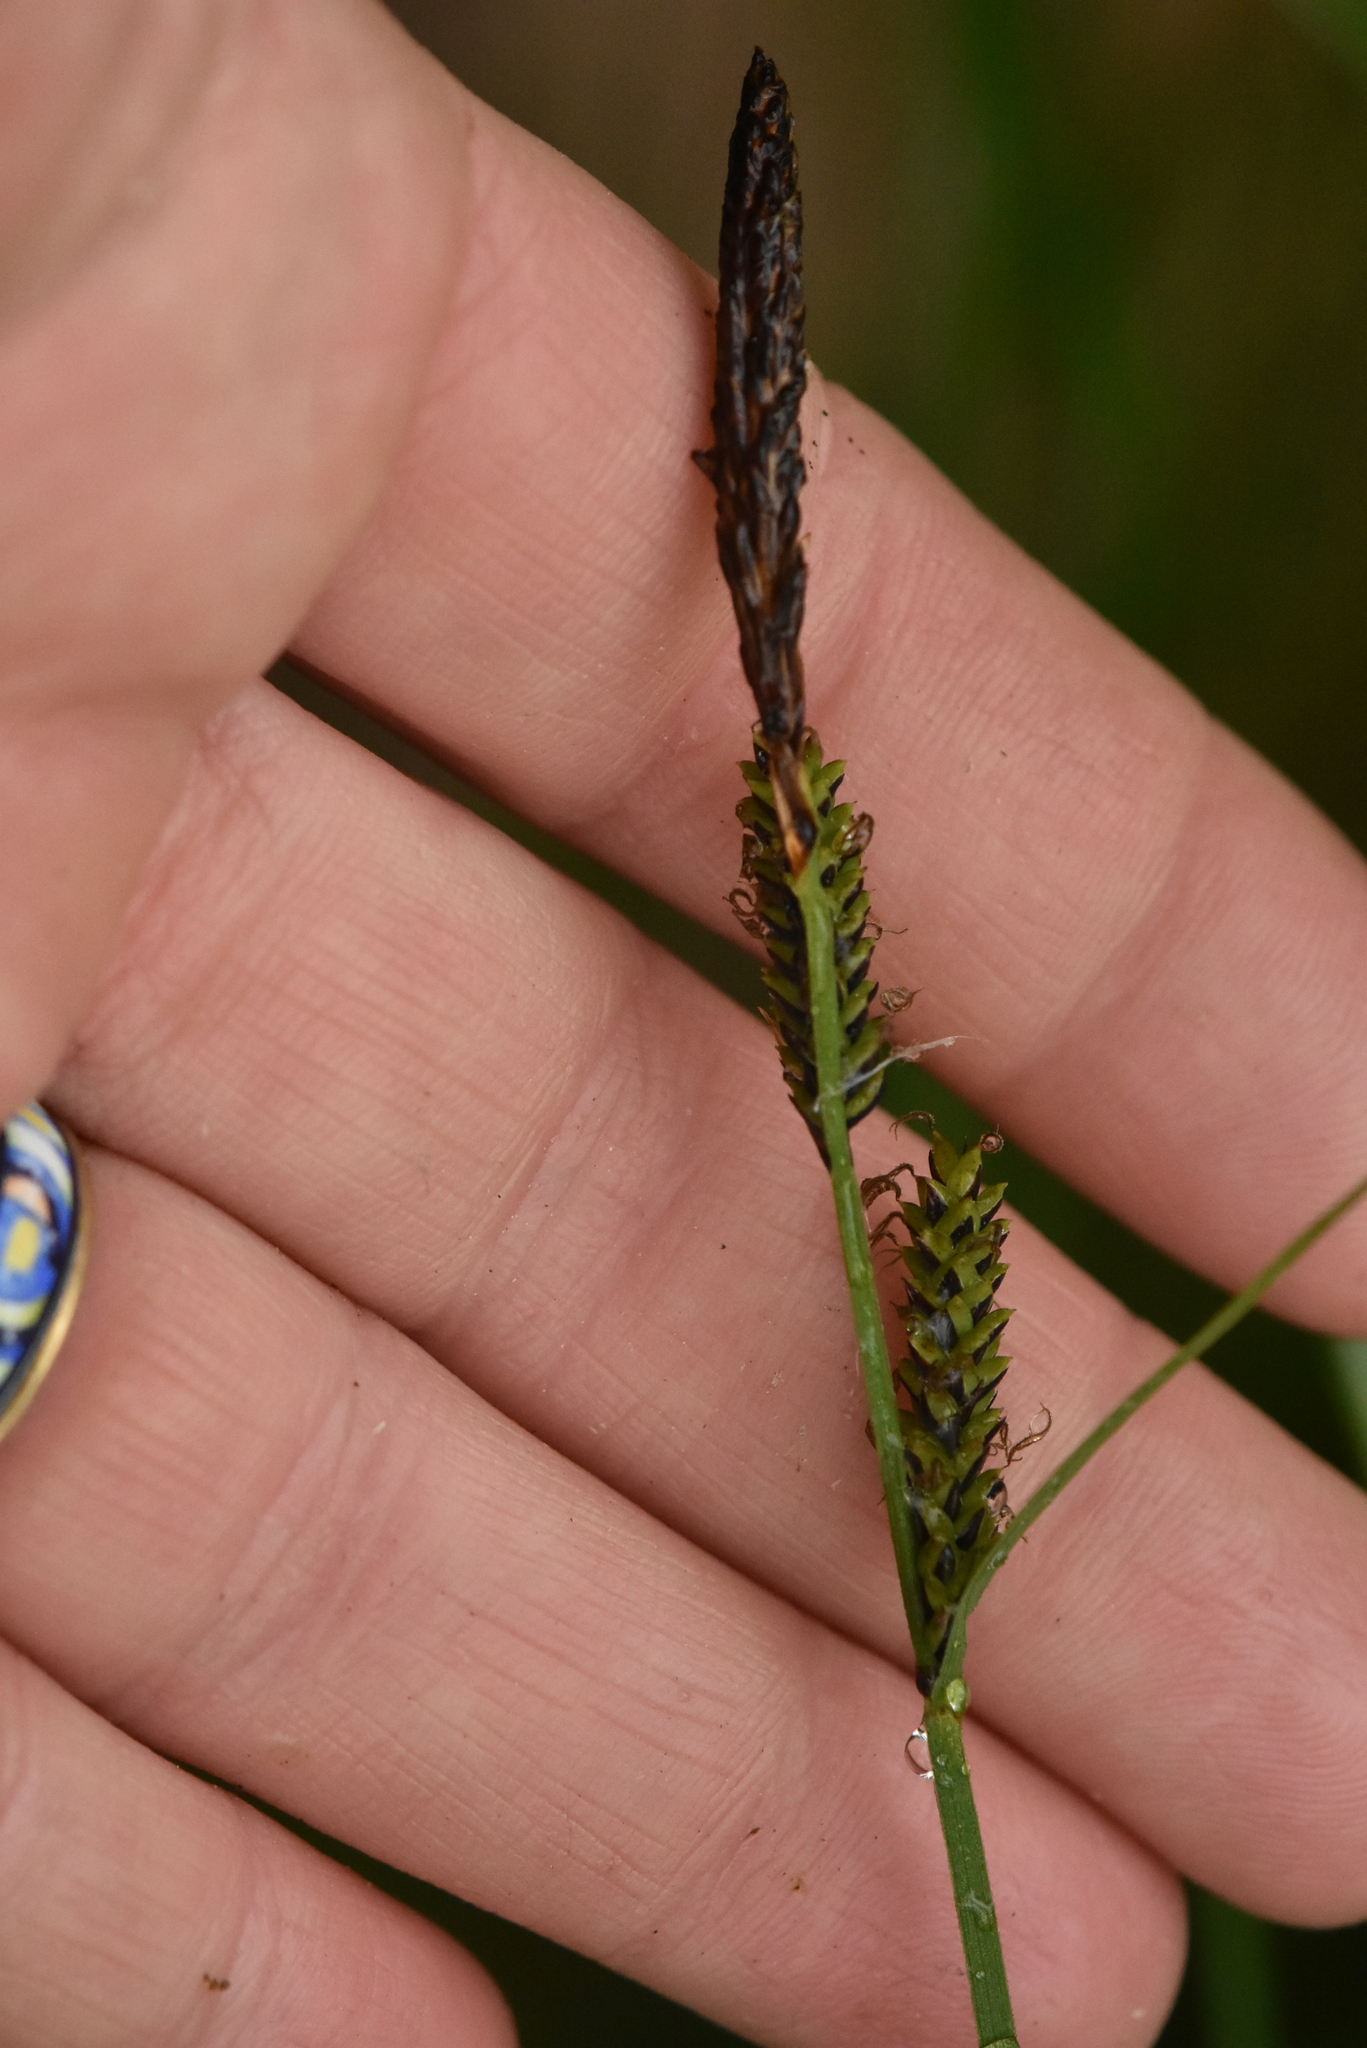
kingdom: Plantae
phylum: Tracheophyta
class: Liliopsida
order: Poales
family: Cyperaceae
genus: Carex
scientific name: Carex nigra
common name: Common sedge
